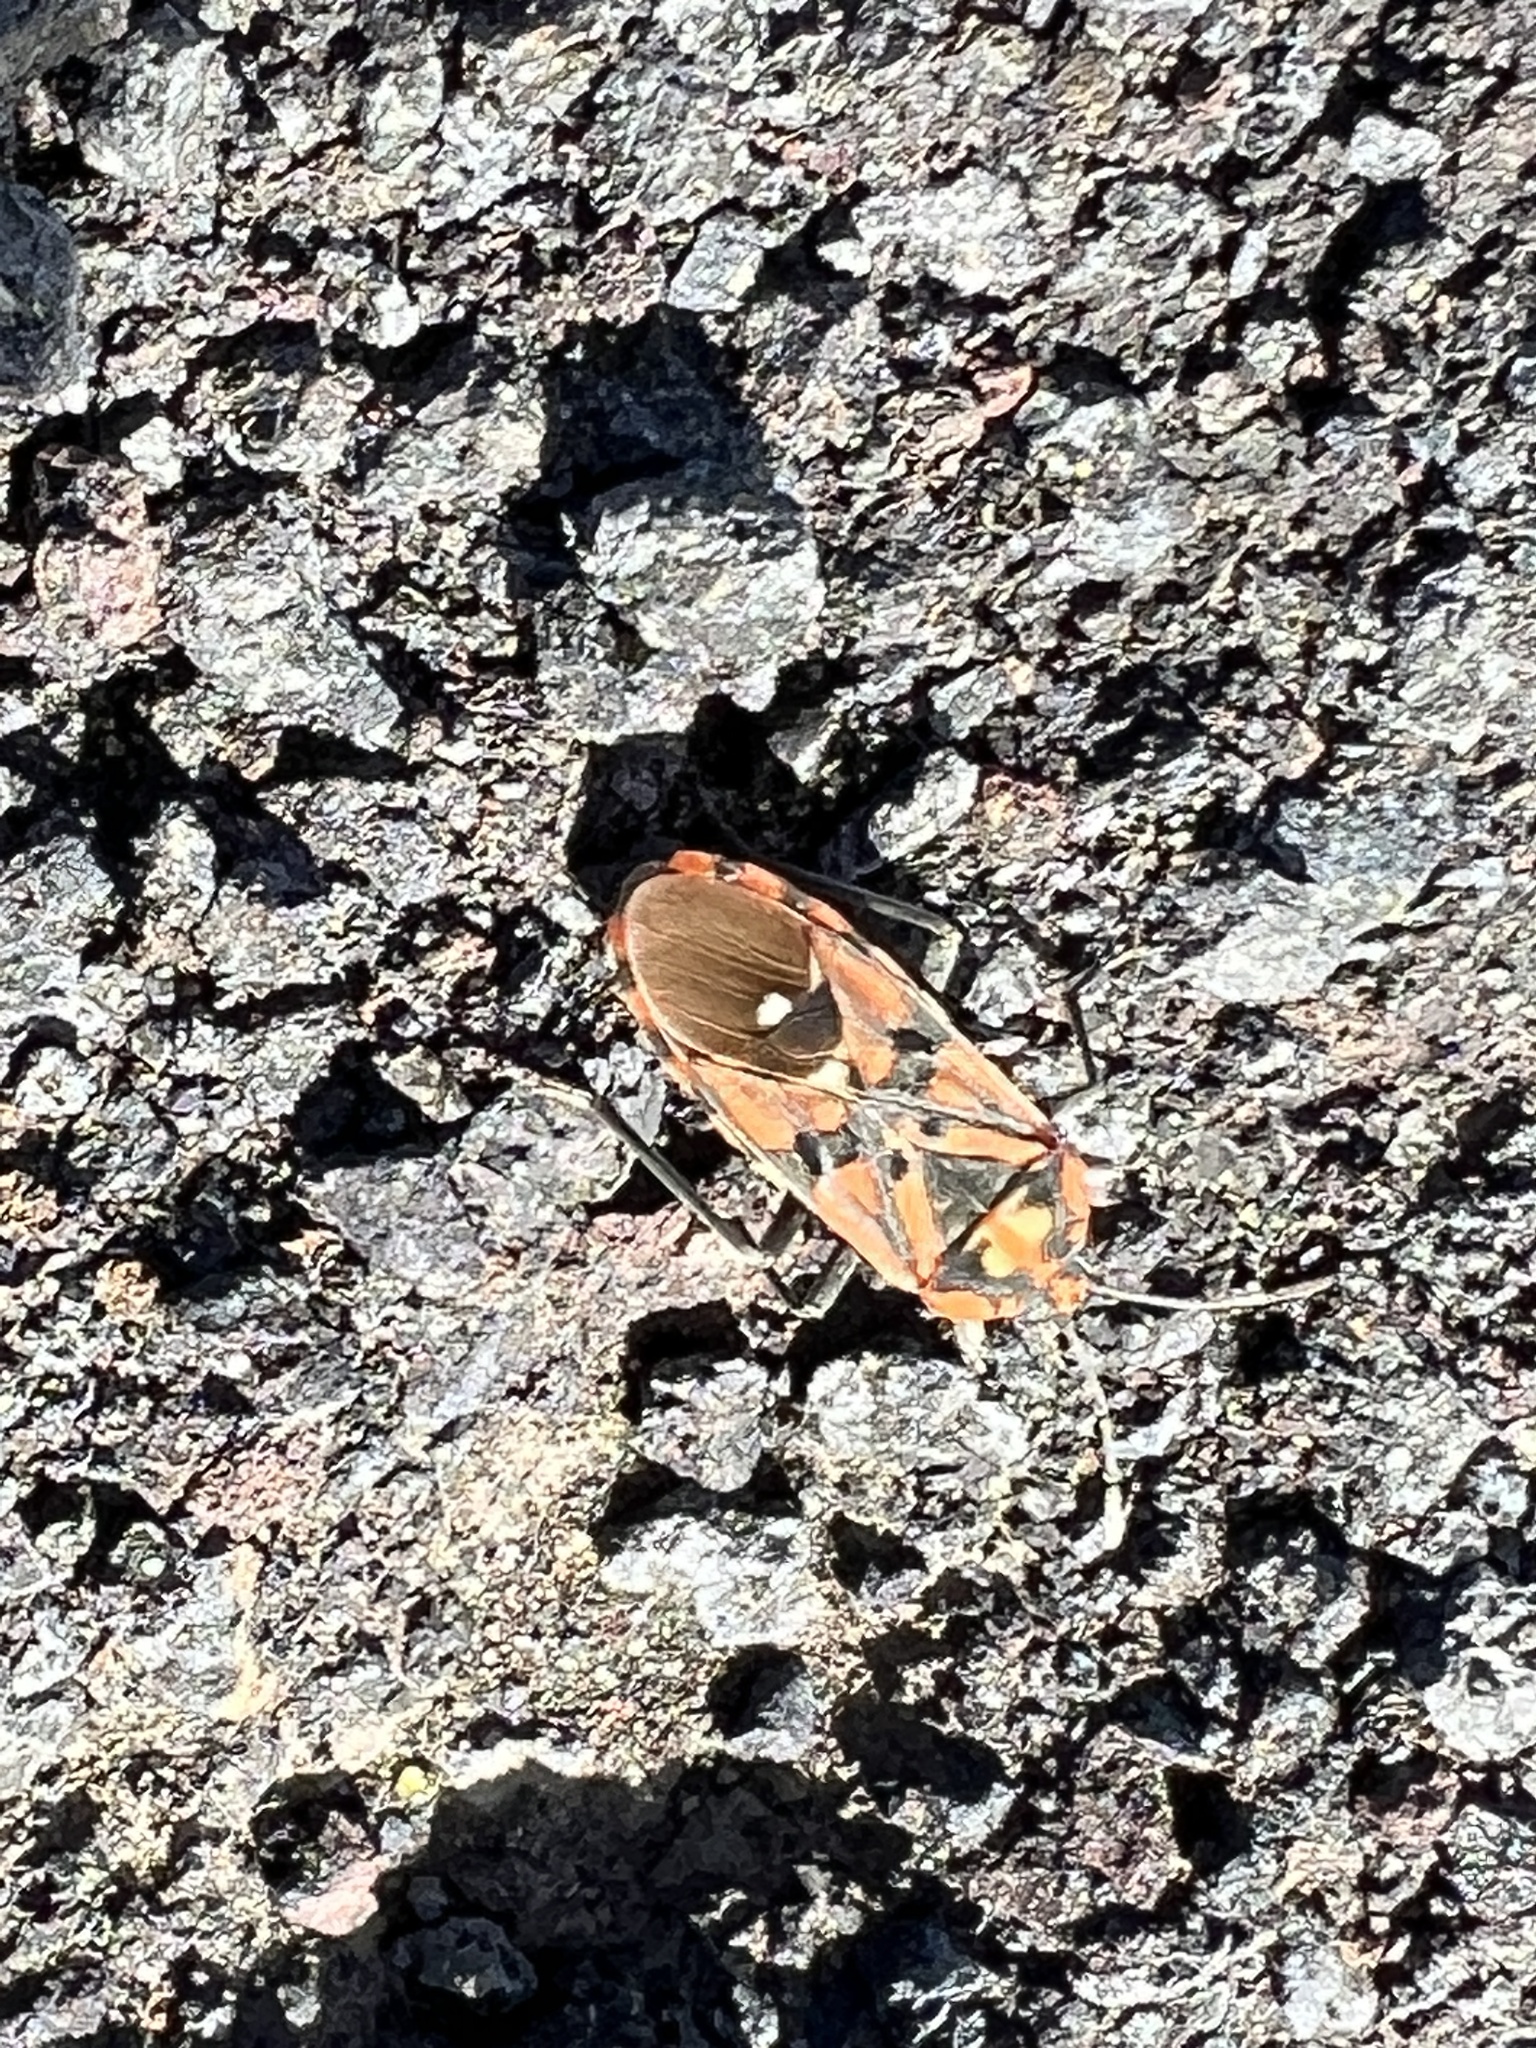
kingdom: Animalia
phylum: Arthropoda
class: Insecta
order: Hemiptera
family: Lygaeidae
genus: Spilostethus
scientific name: Spilostethus pandurus
